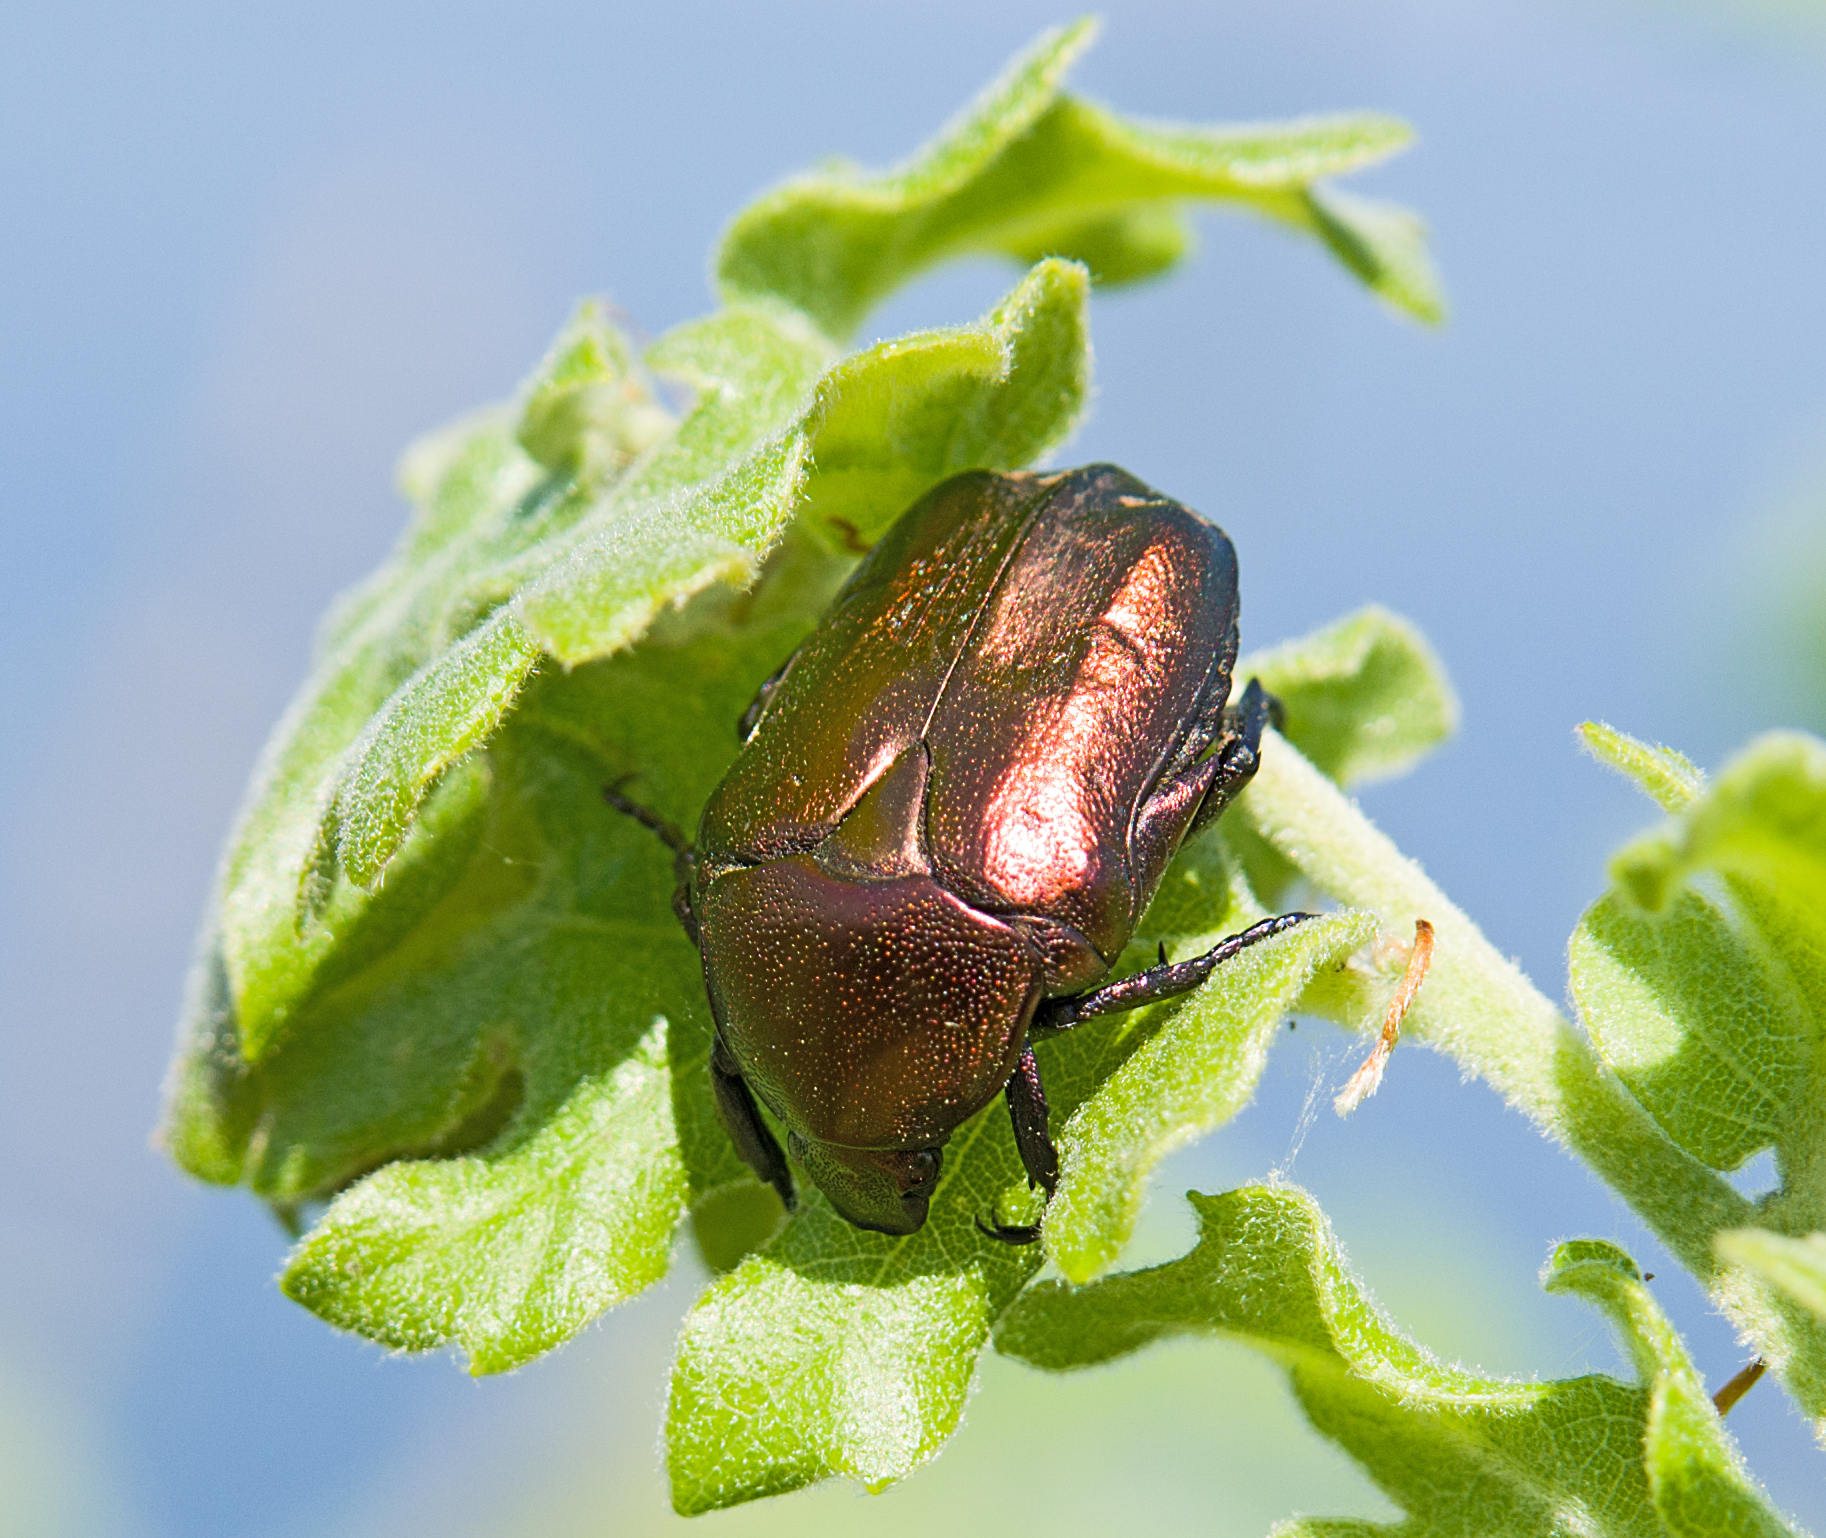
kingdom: Animalia
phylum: Arthropoda
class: Insecta
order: Coleoptera
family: Scarabaeidae
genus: Protaetia
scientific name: Protaetia cuprea
